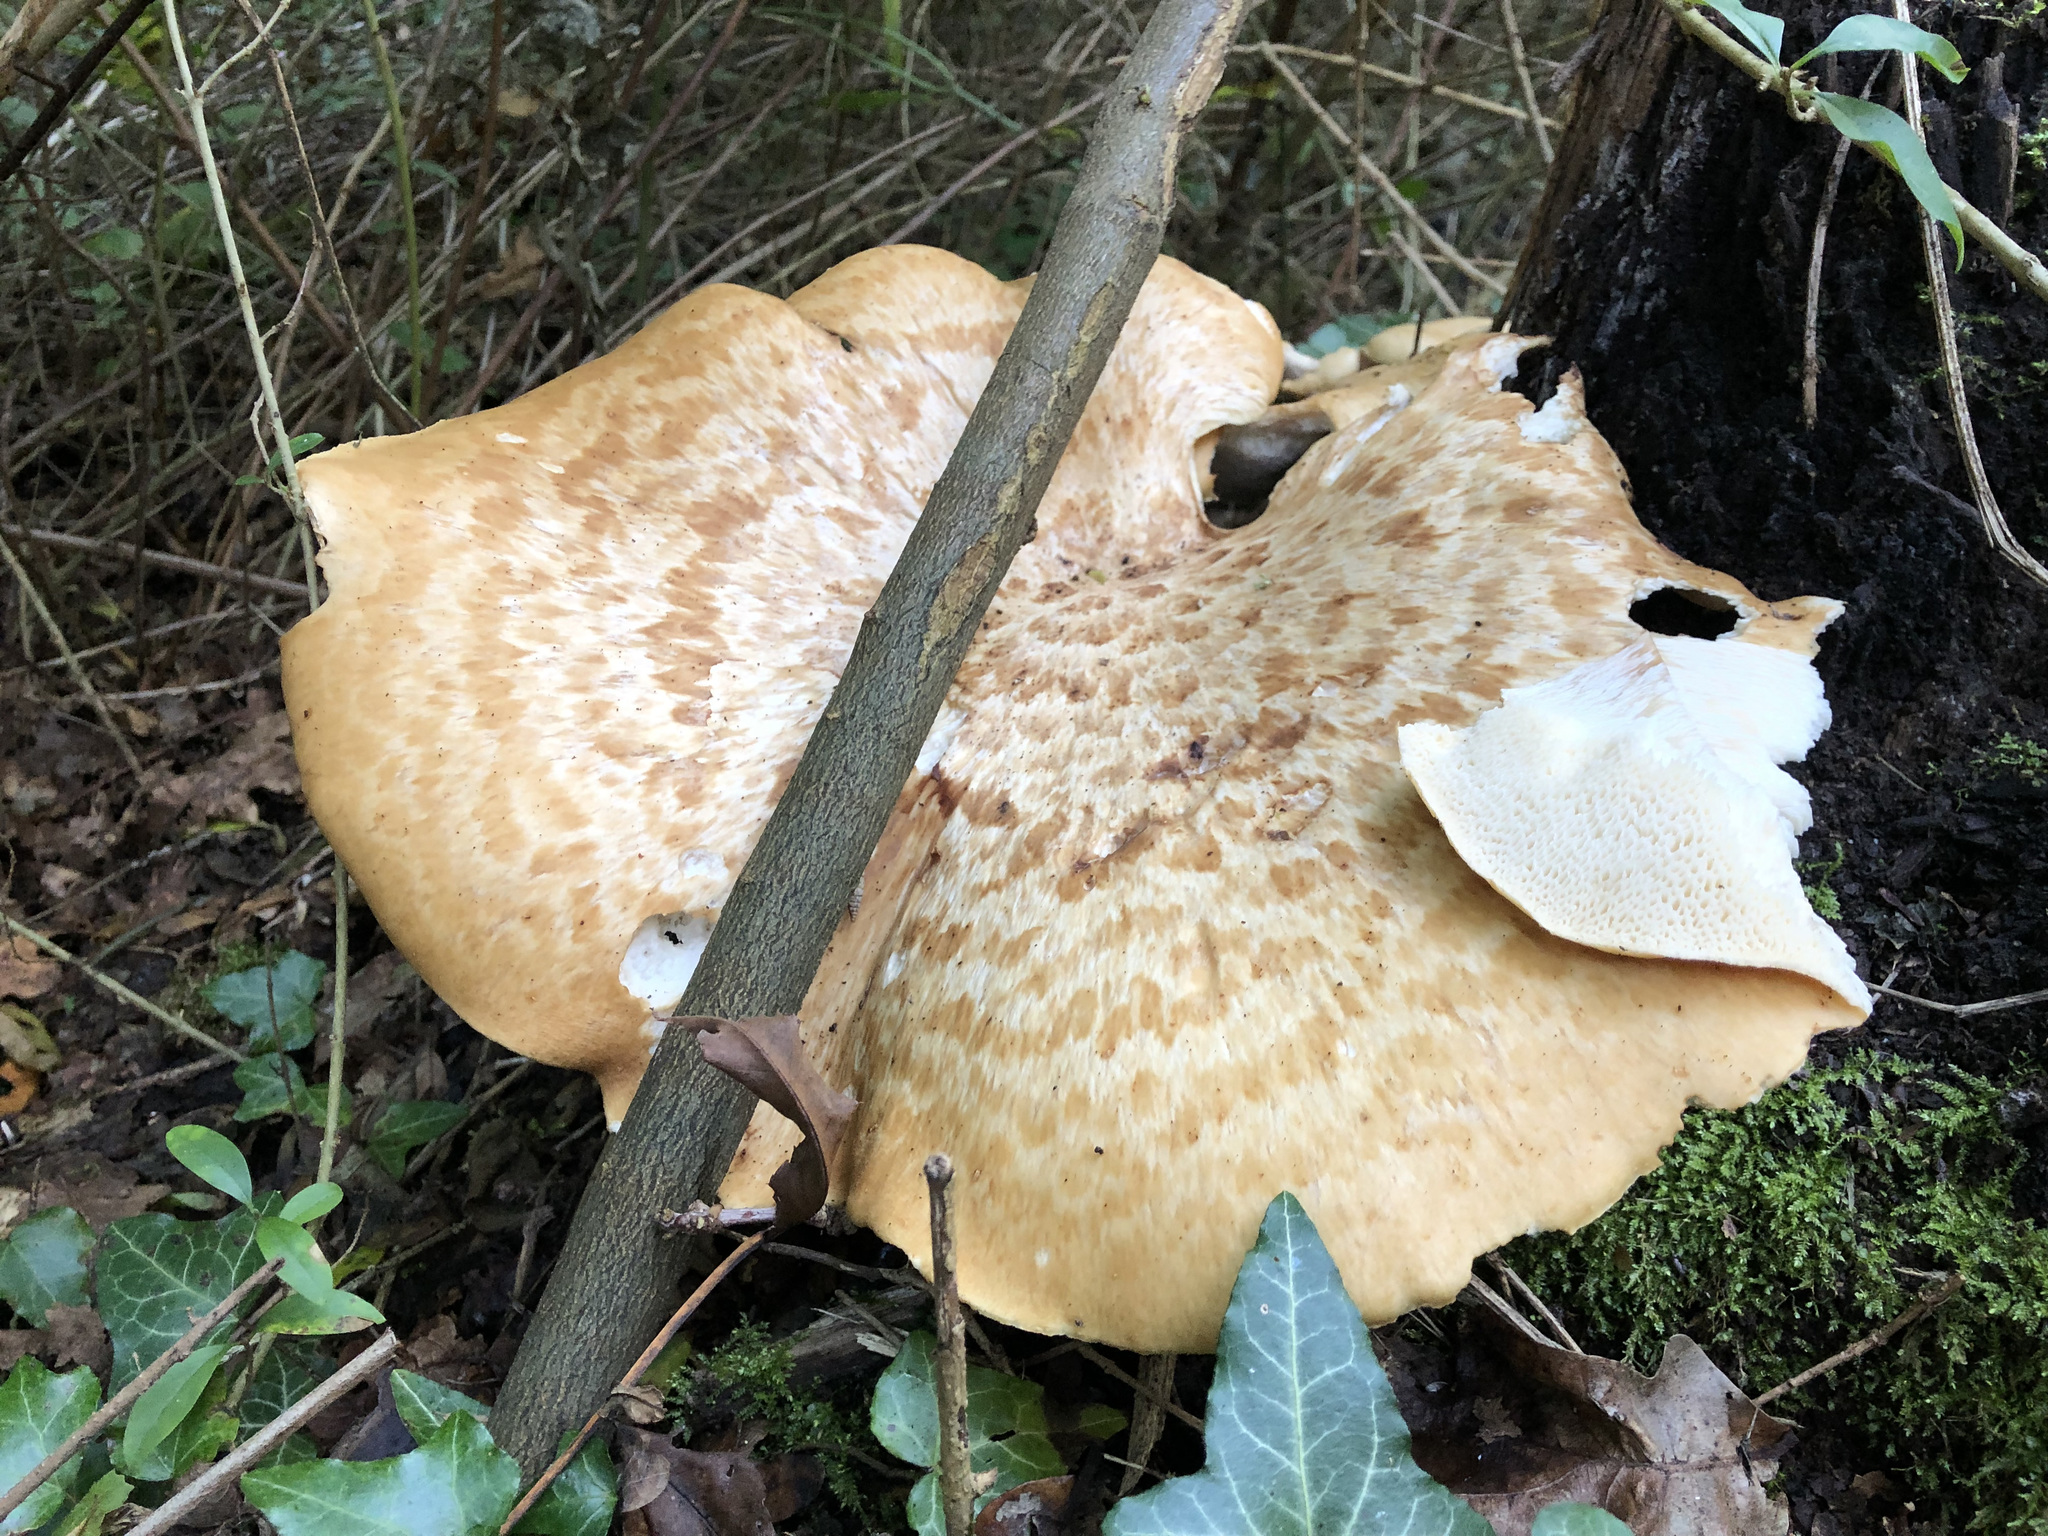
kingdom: Fungi
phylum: Basidiomycota
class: Agaricomycetes
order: Polyporales
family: Polyporaceae
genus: Cerioporus
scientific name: Cerioporus squamosus
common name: Dryad's saddle
